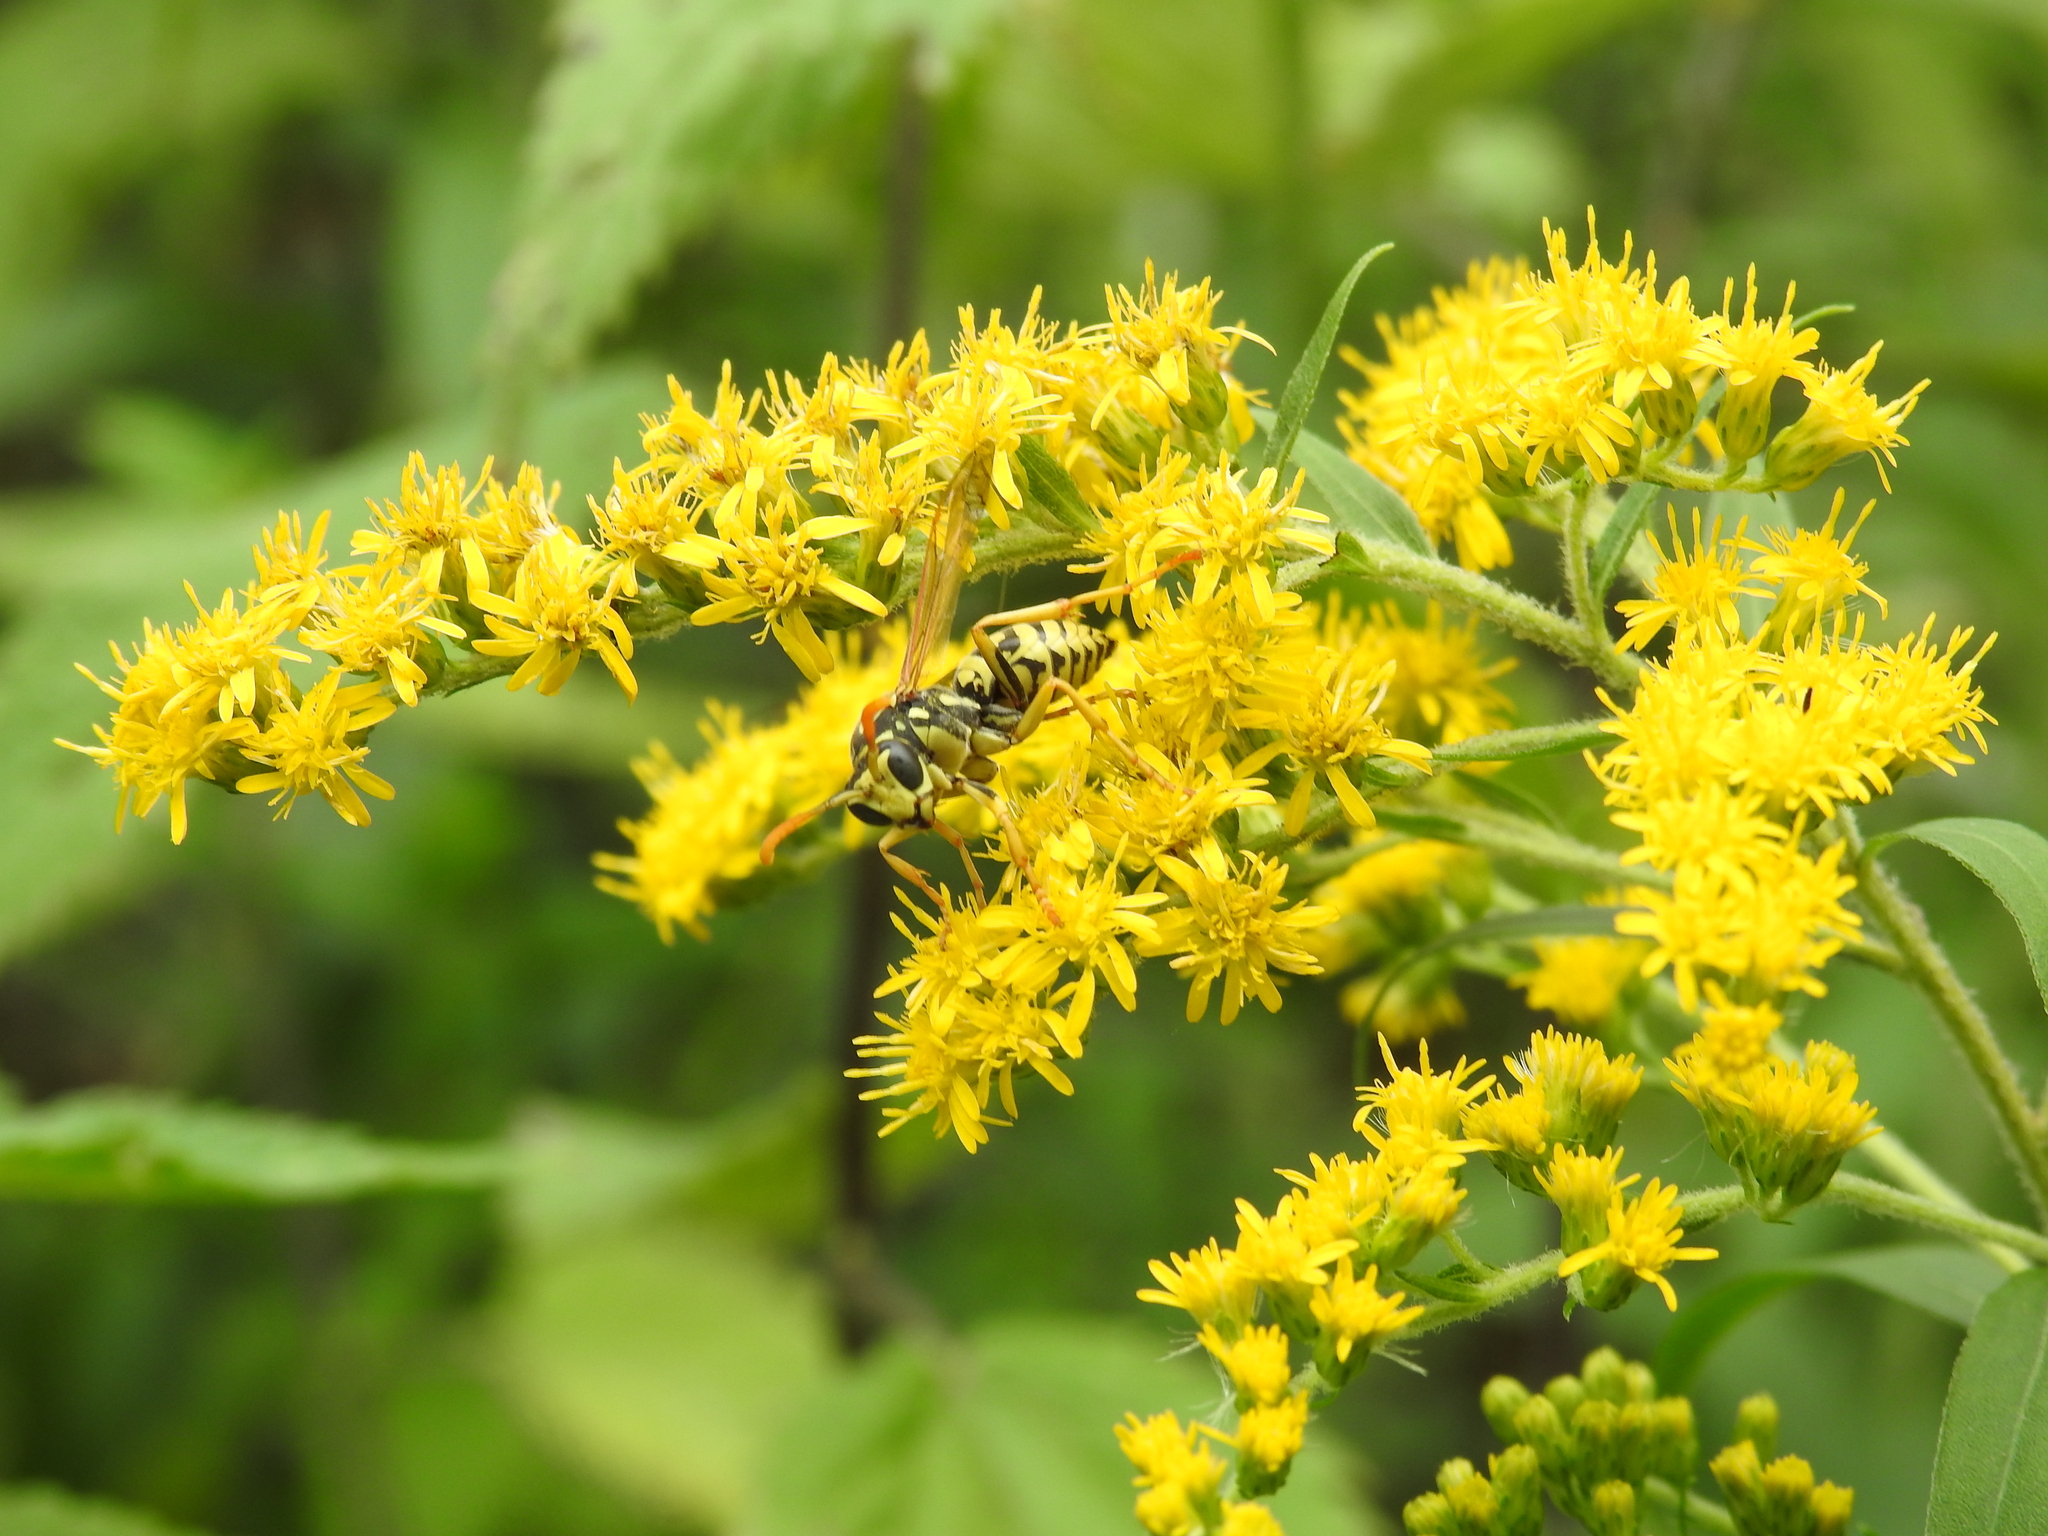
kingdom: Animalia
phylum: Arthropoda
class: Insecta
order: Hymenoptera
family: Eumenidae
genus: Polistes
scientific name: Polistes dominula
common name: Paper wasp
